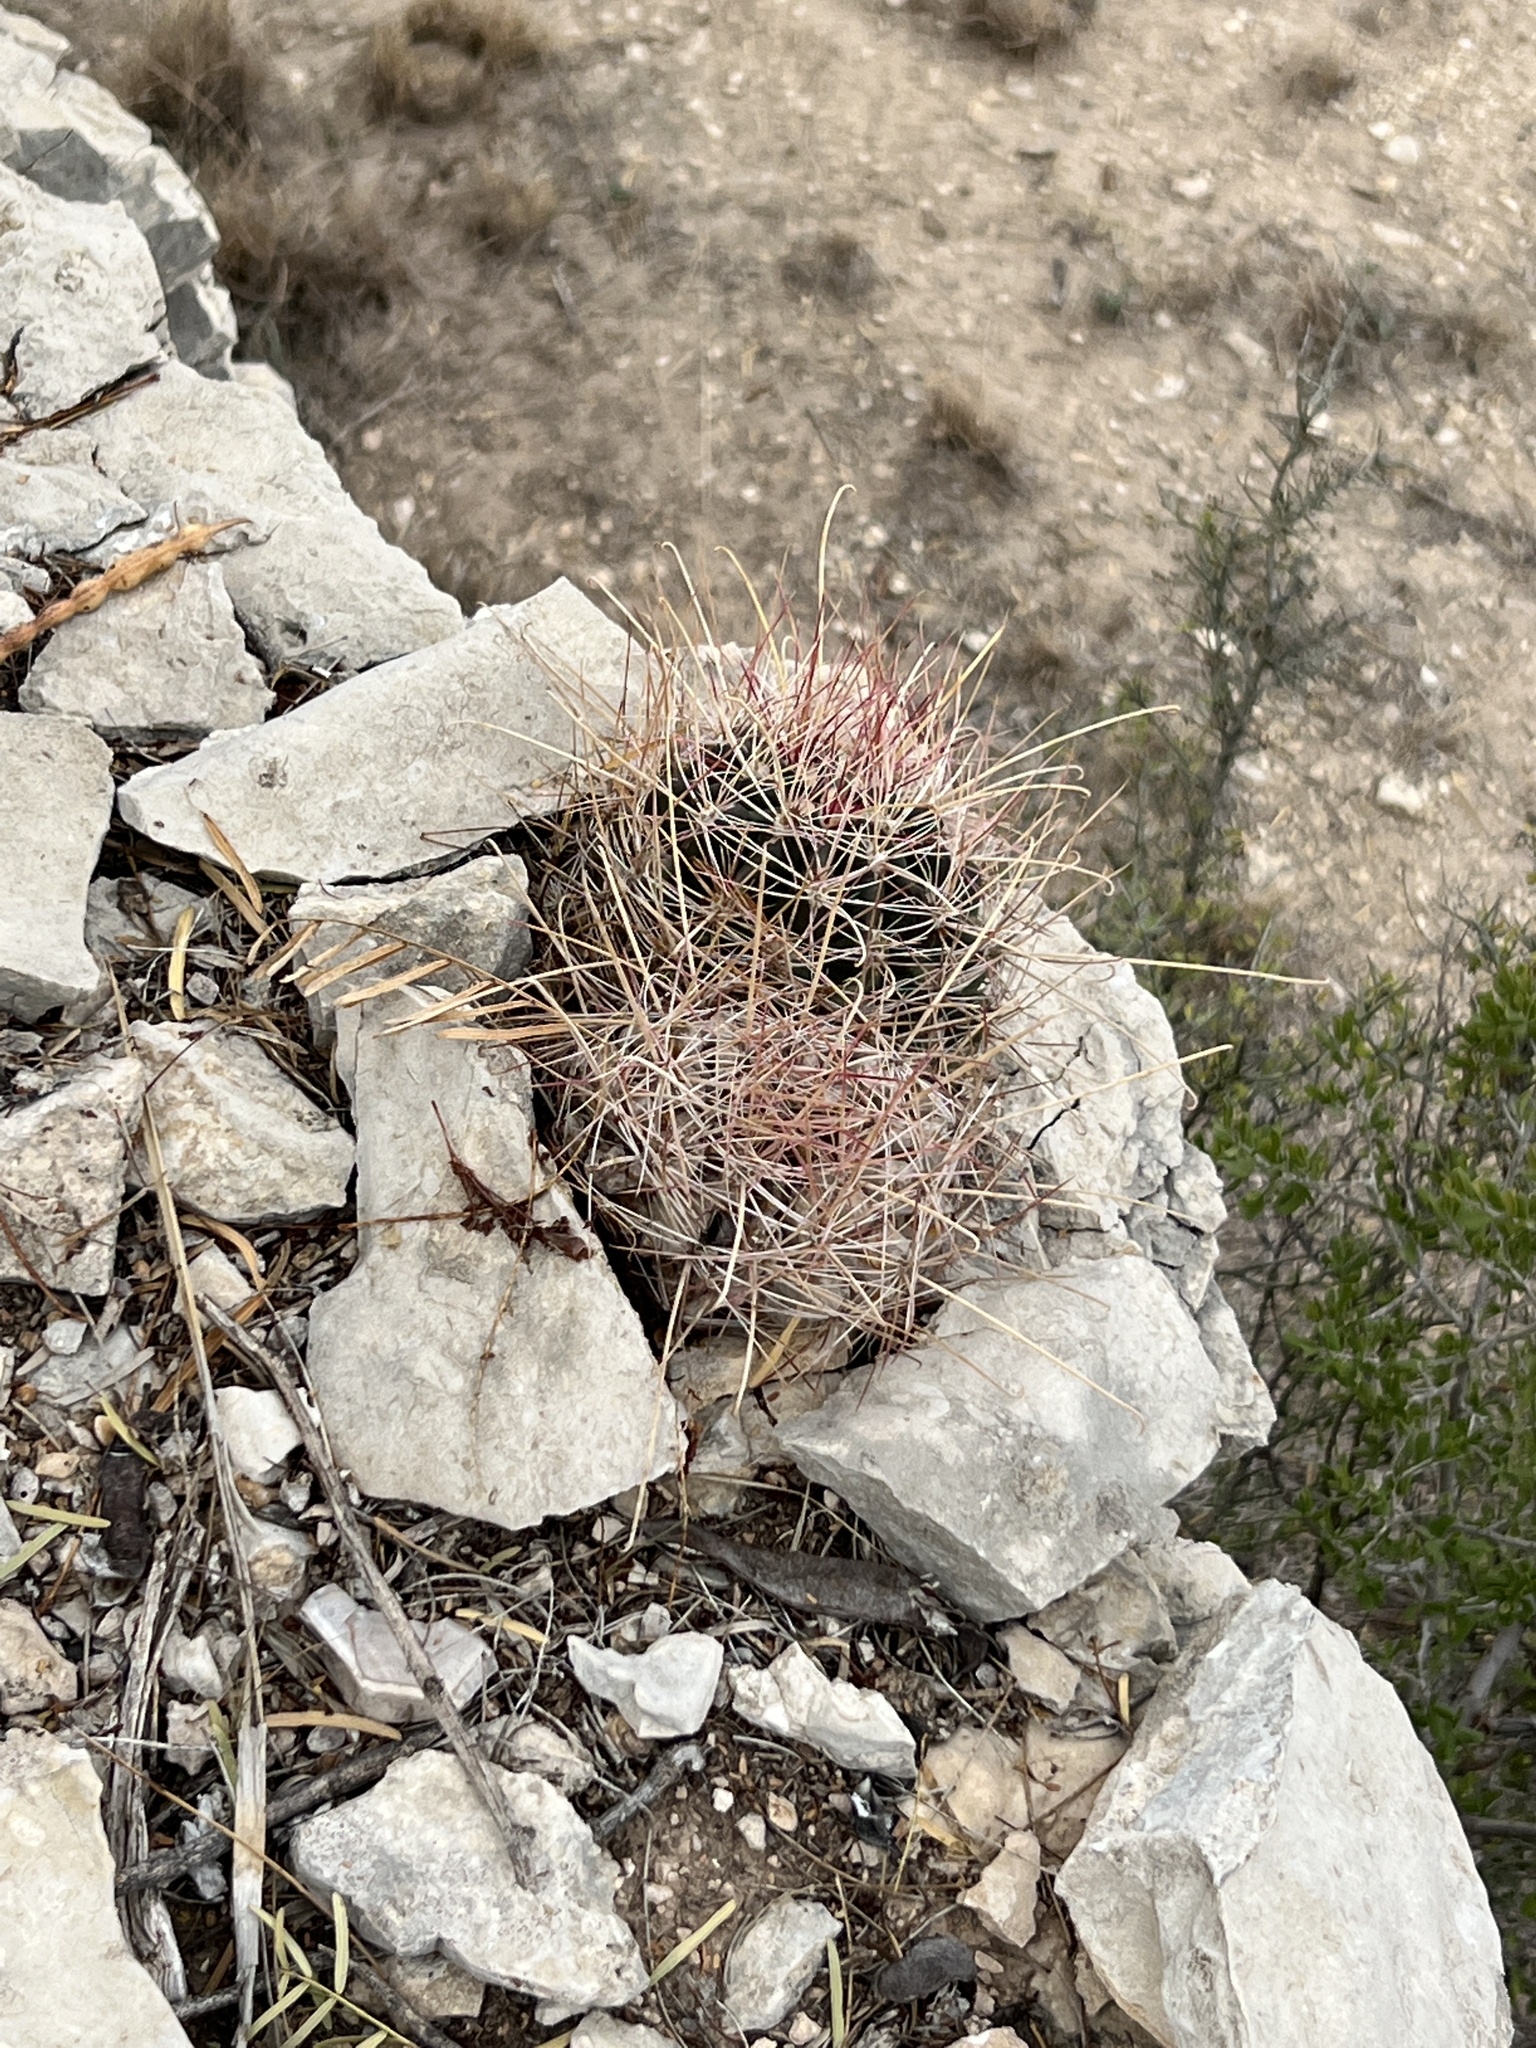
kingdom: Plantae
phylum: Tracheophyta
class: Magnoliopsida
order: Caryophyllales
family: Cactaceae
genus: Bisnaga
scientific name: Bisnaga hamatacantha
